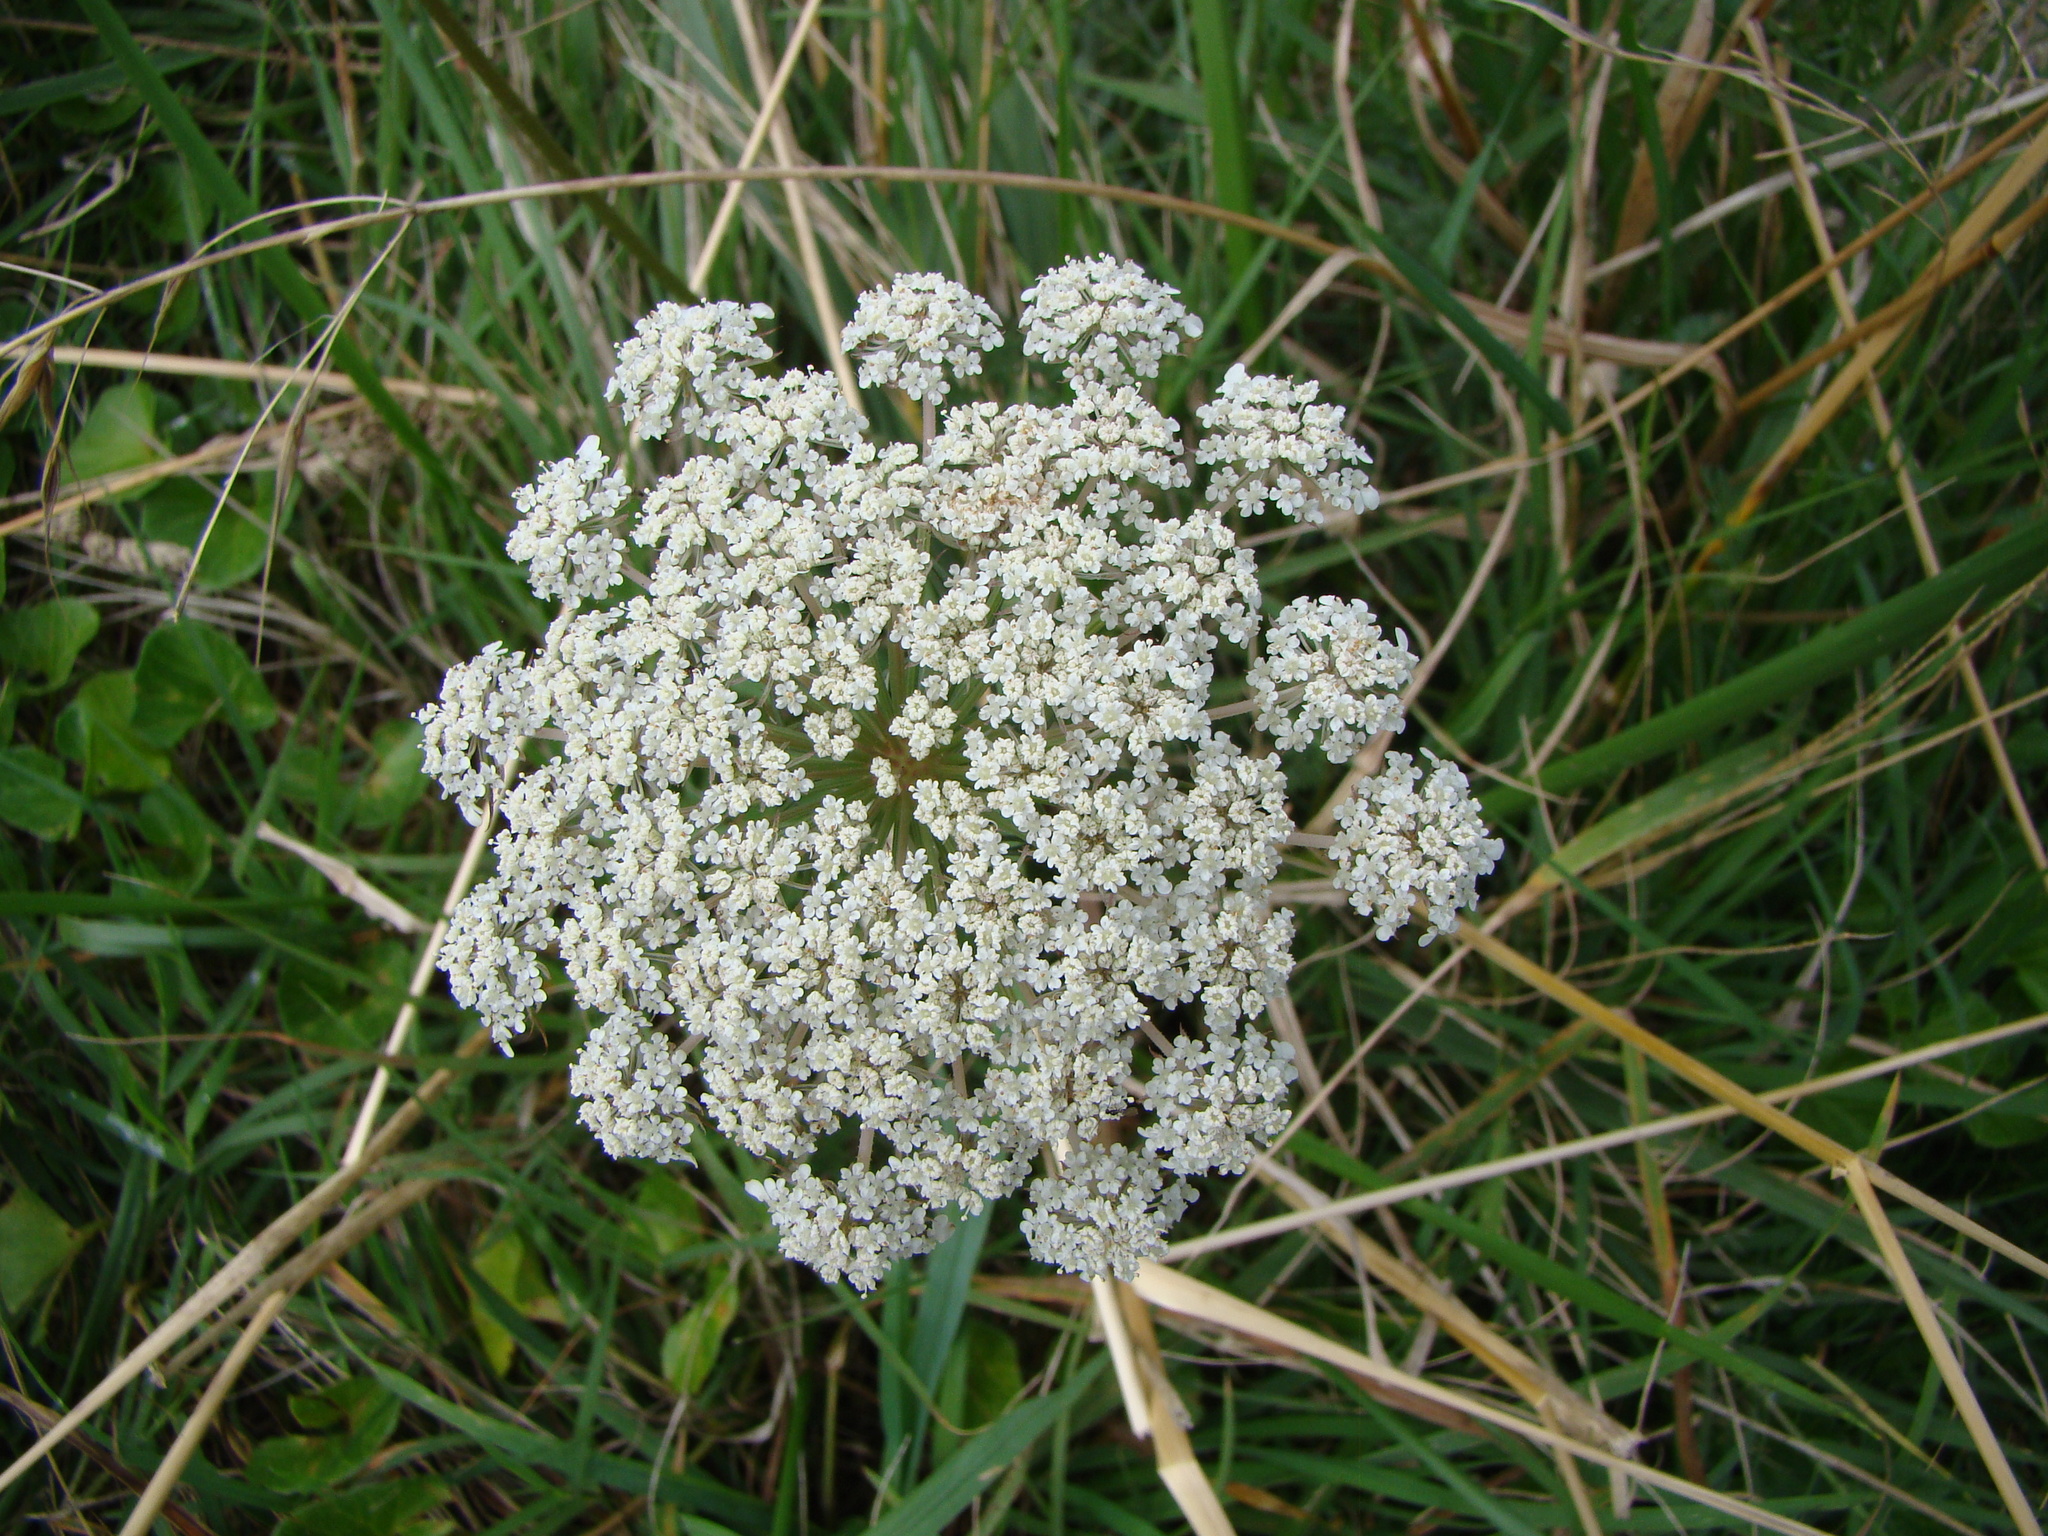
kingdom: Plantae
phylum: Tracheophyta
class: Magnoliopsida
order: Apiales
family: Apiaceae
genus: Daucus
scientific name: Daucus carota
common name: Wild carrot
